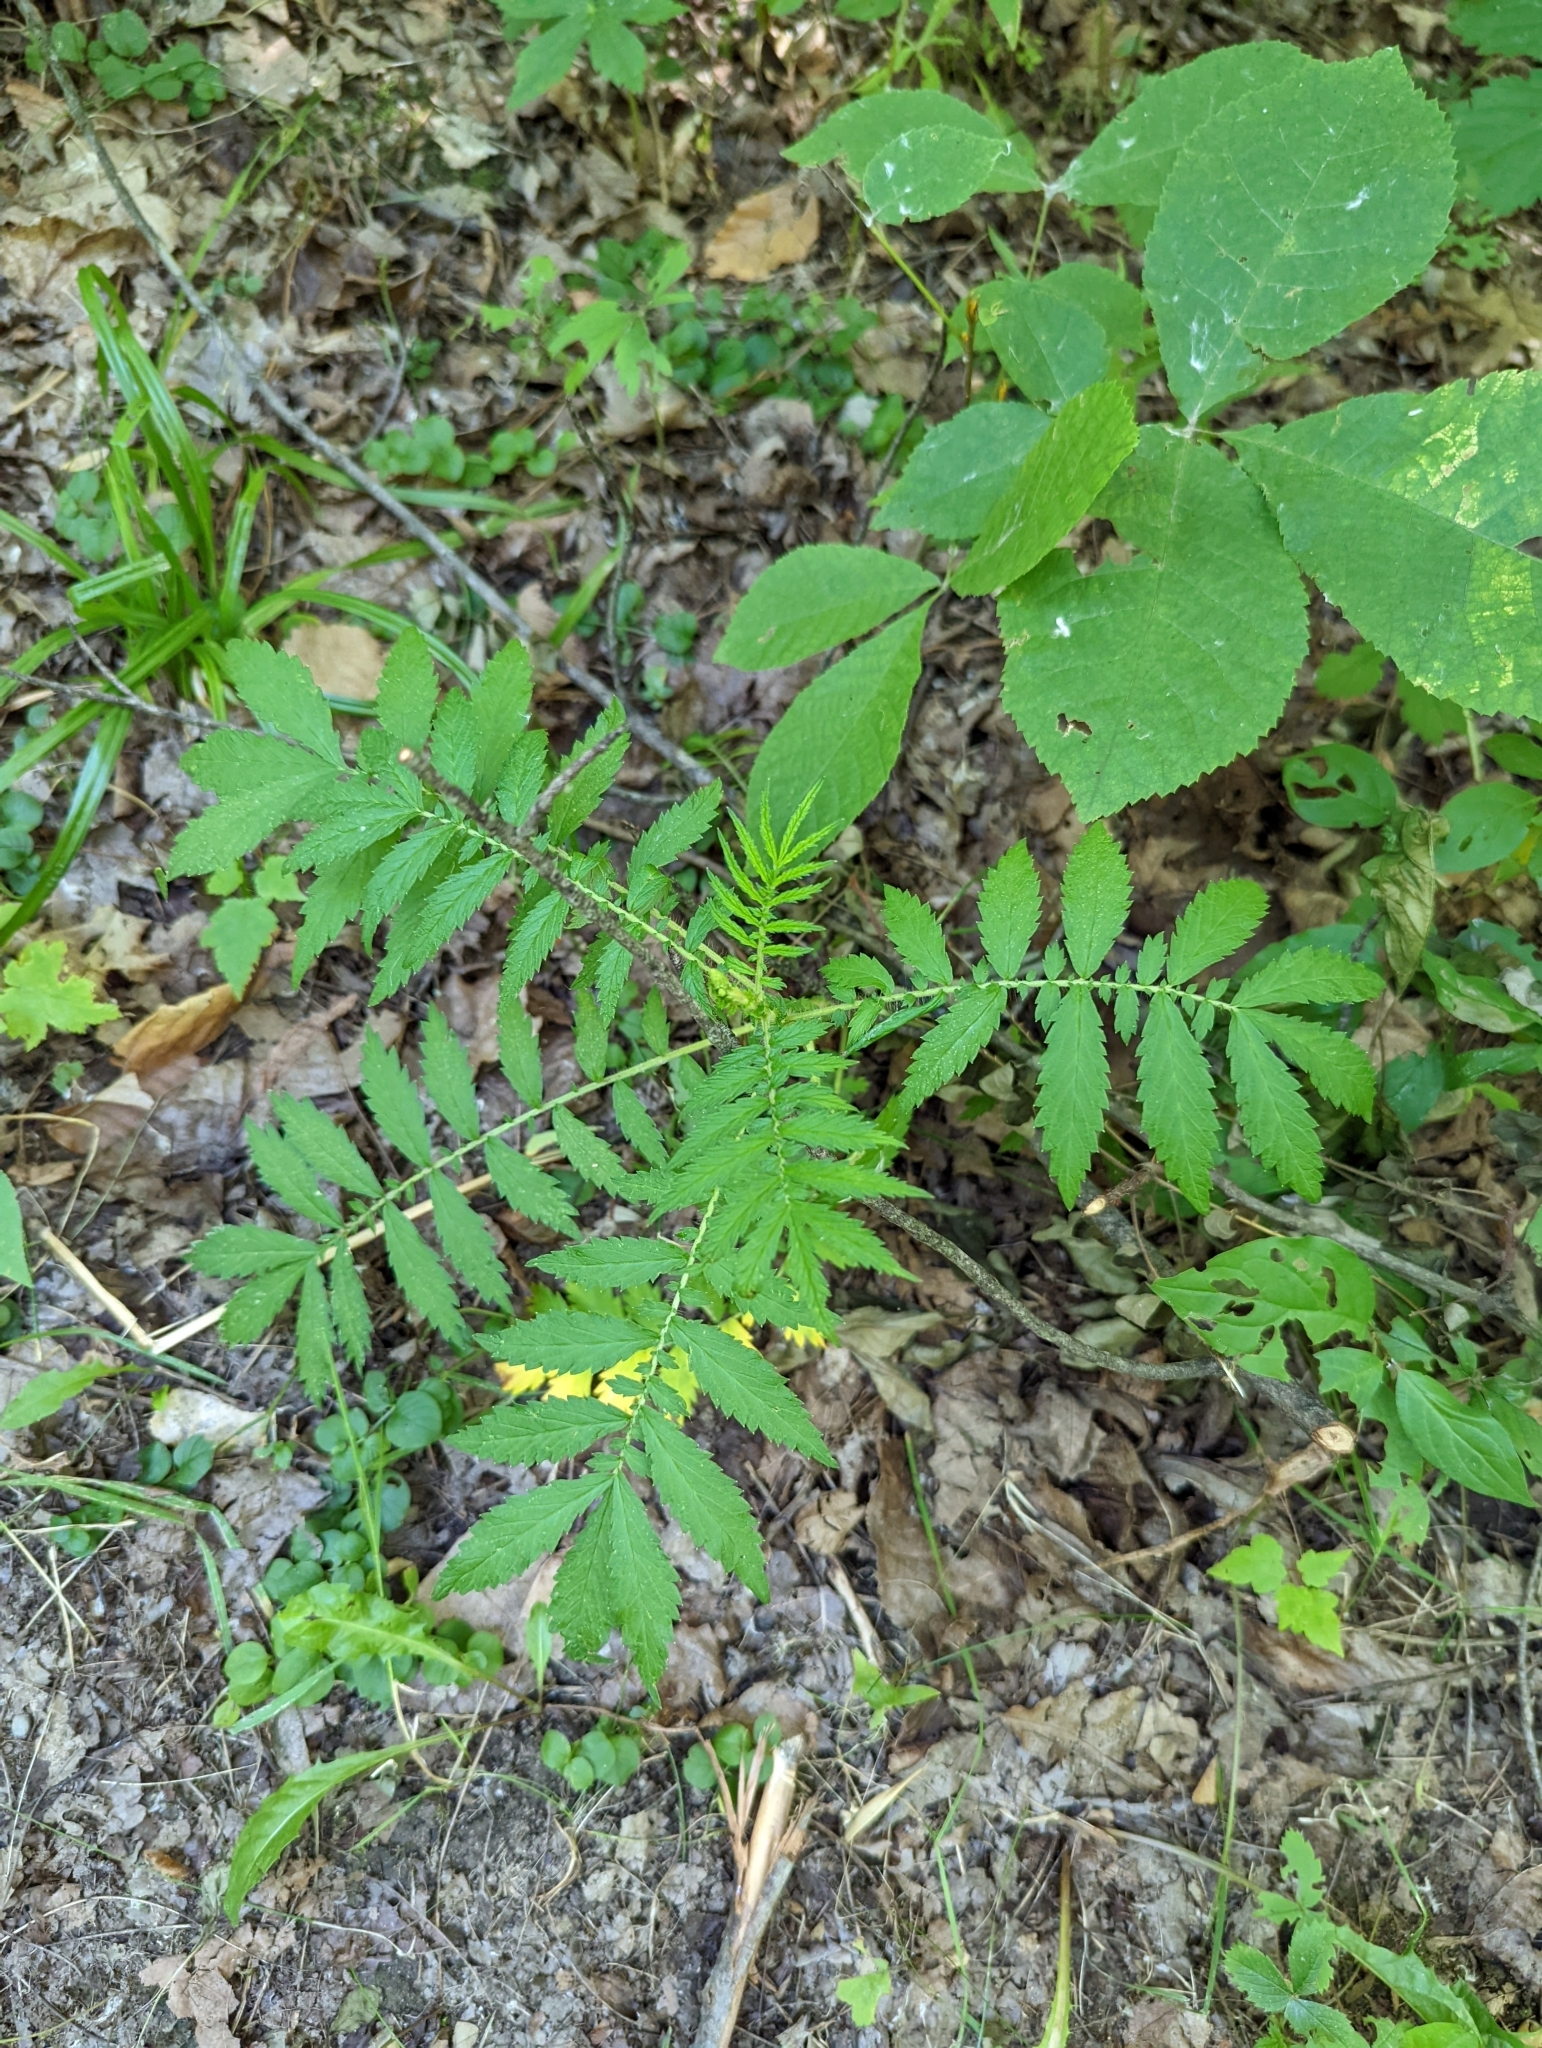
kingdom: Plantae
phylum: Tracheophyta
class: Magnoliopsida
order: Rosales
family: Rosaceae
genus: Agrimonia
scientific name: Agrimonia parviflora
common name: Harvest-lice
